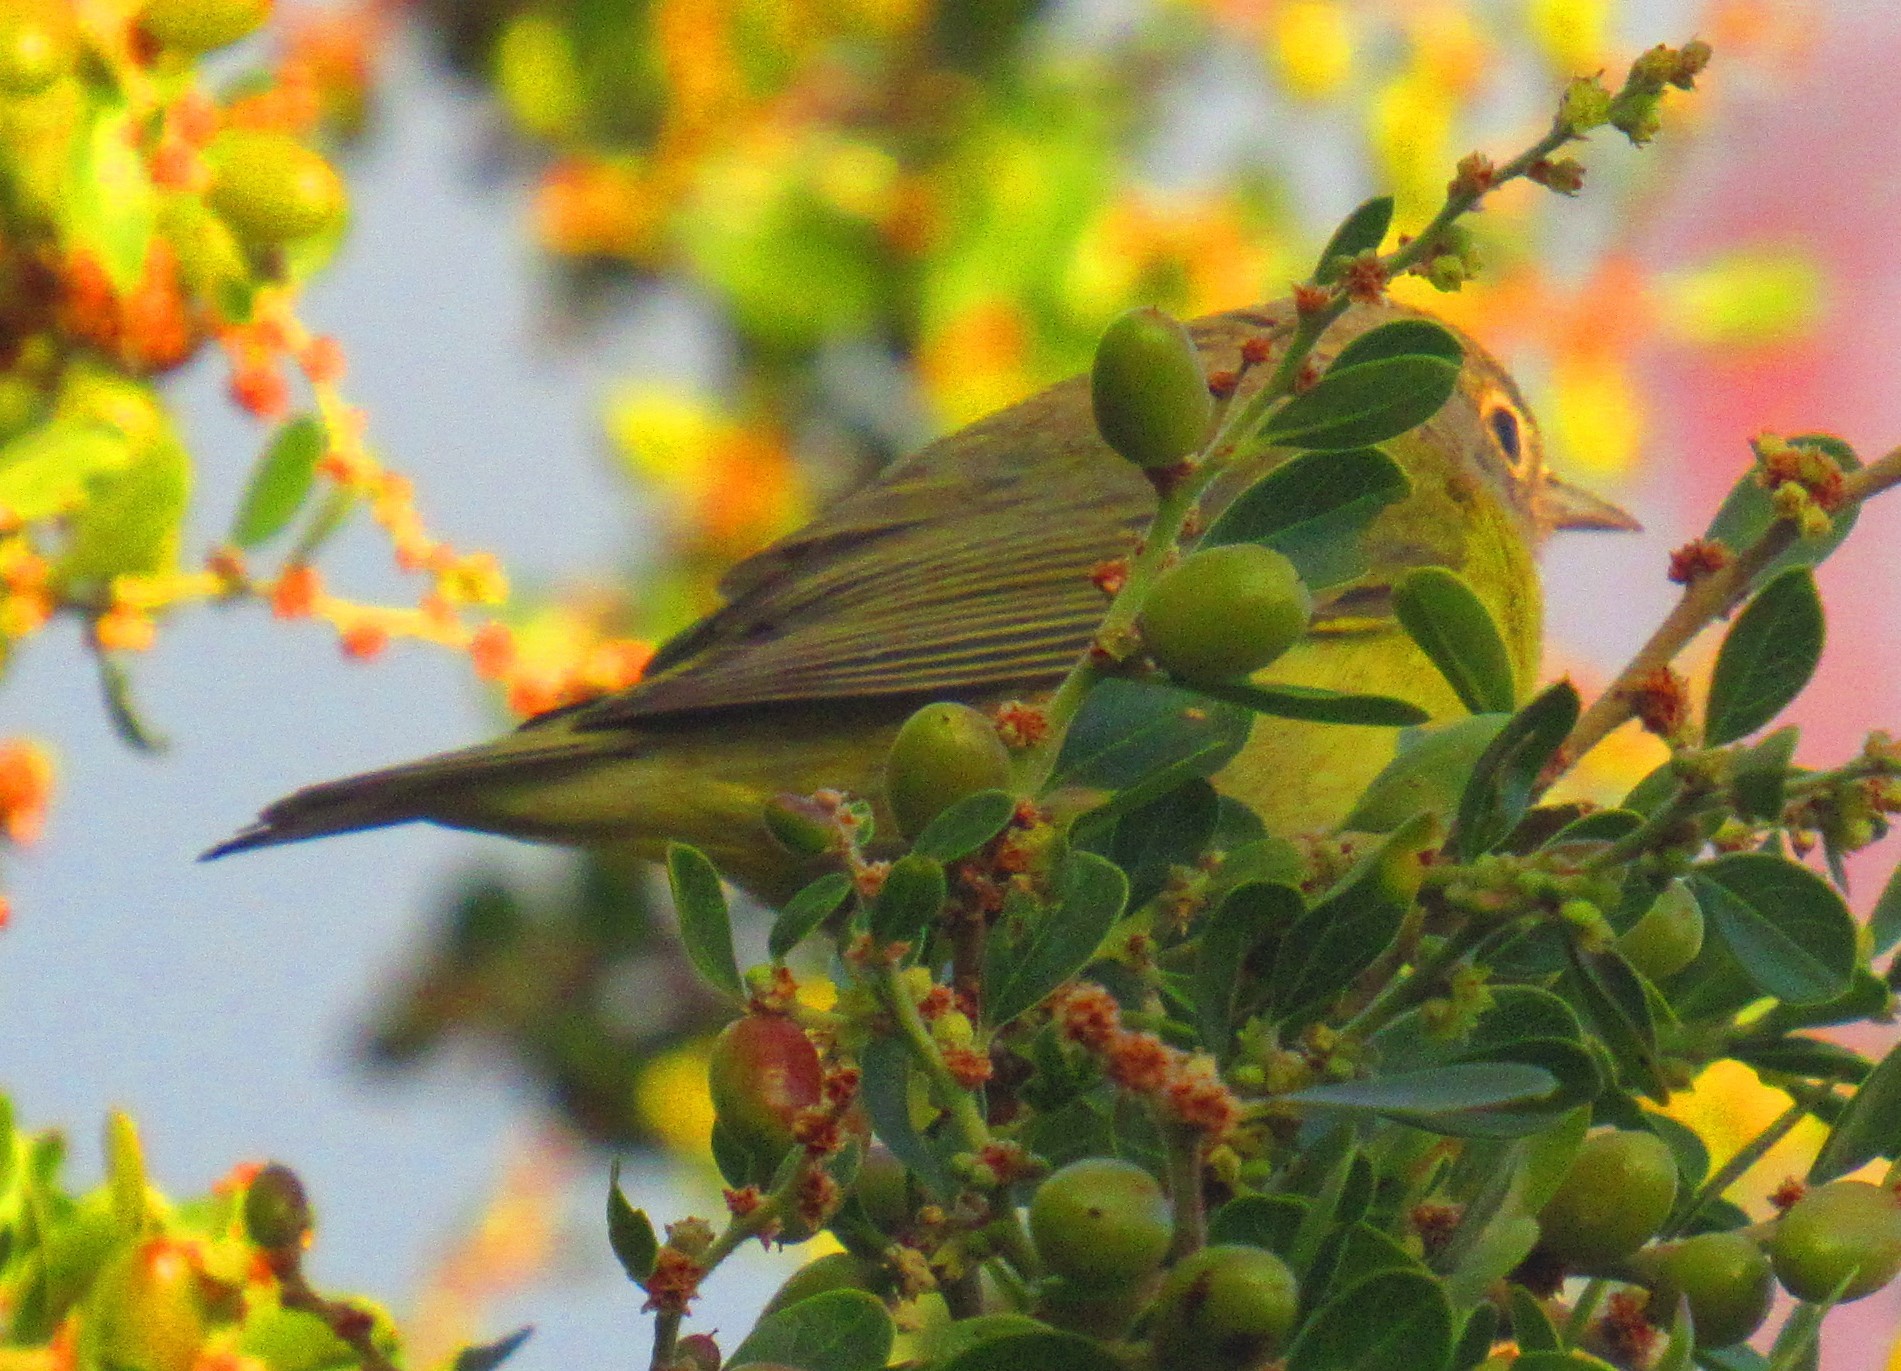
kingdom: Animalia
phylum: Chordata
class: Aves
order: Passeriformes
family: Parulidae
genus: Leiothlypis
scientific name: Leiothlypis ruficapilla
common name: Nashville warbler
